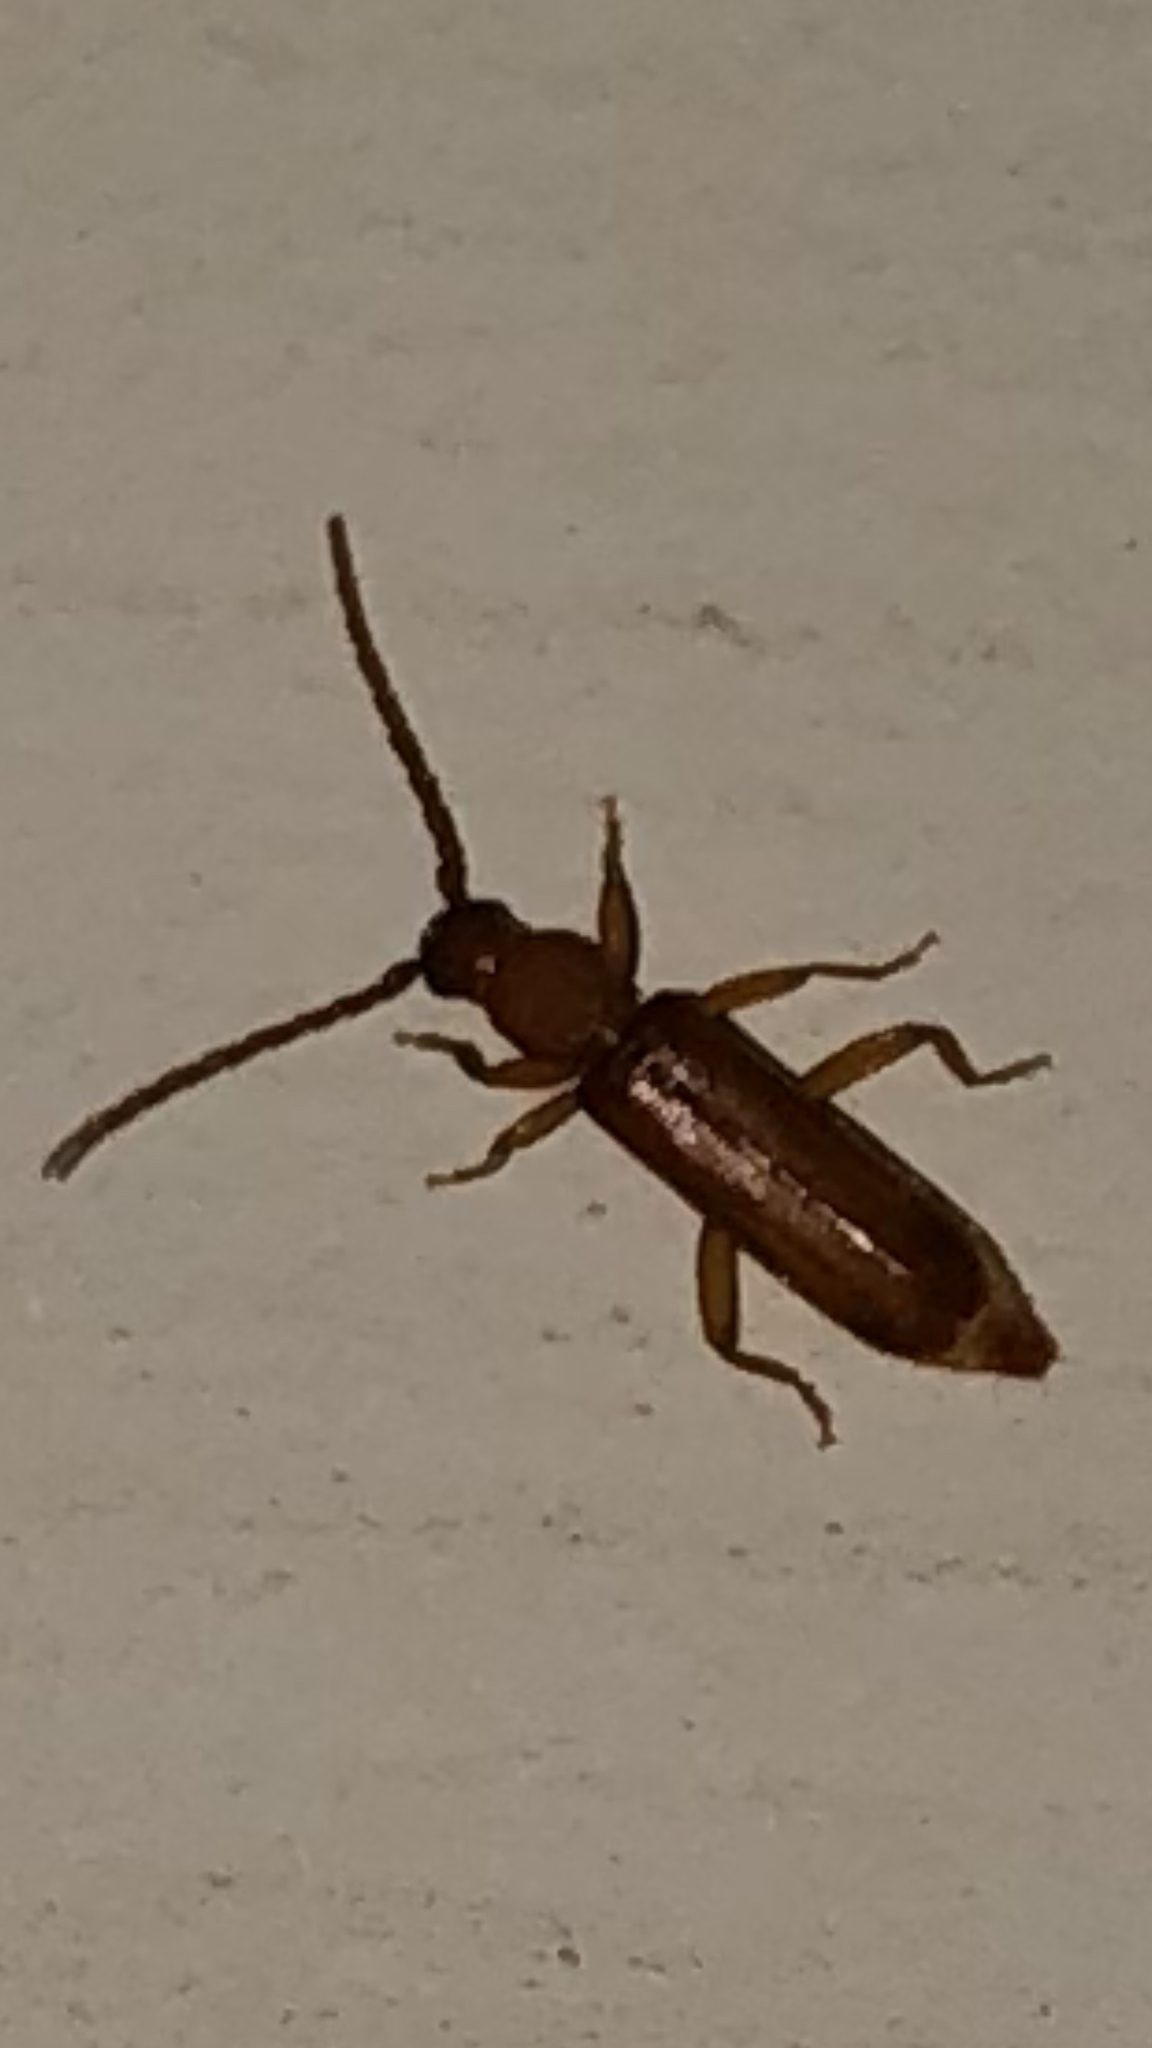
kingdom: Animalia
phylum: Arthropoda
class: Insecta
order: Coleoptera
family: Cerambycidae
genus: Smodicum
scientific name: Smodicum cucujiforme
